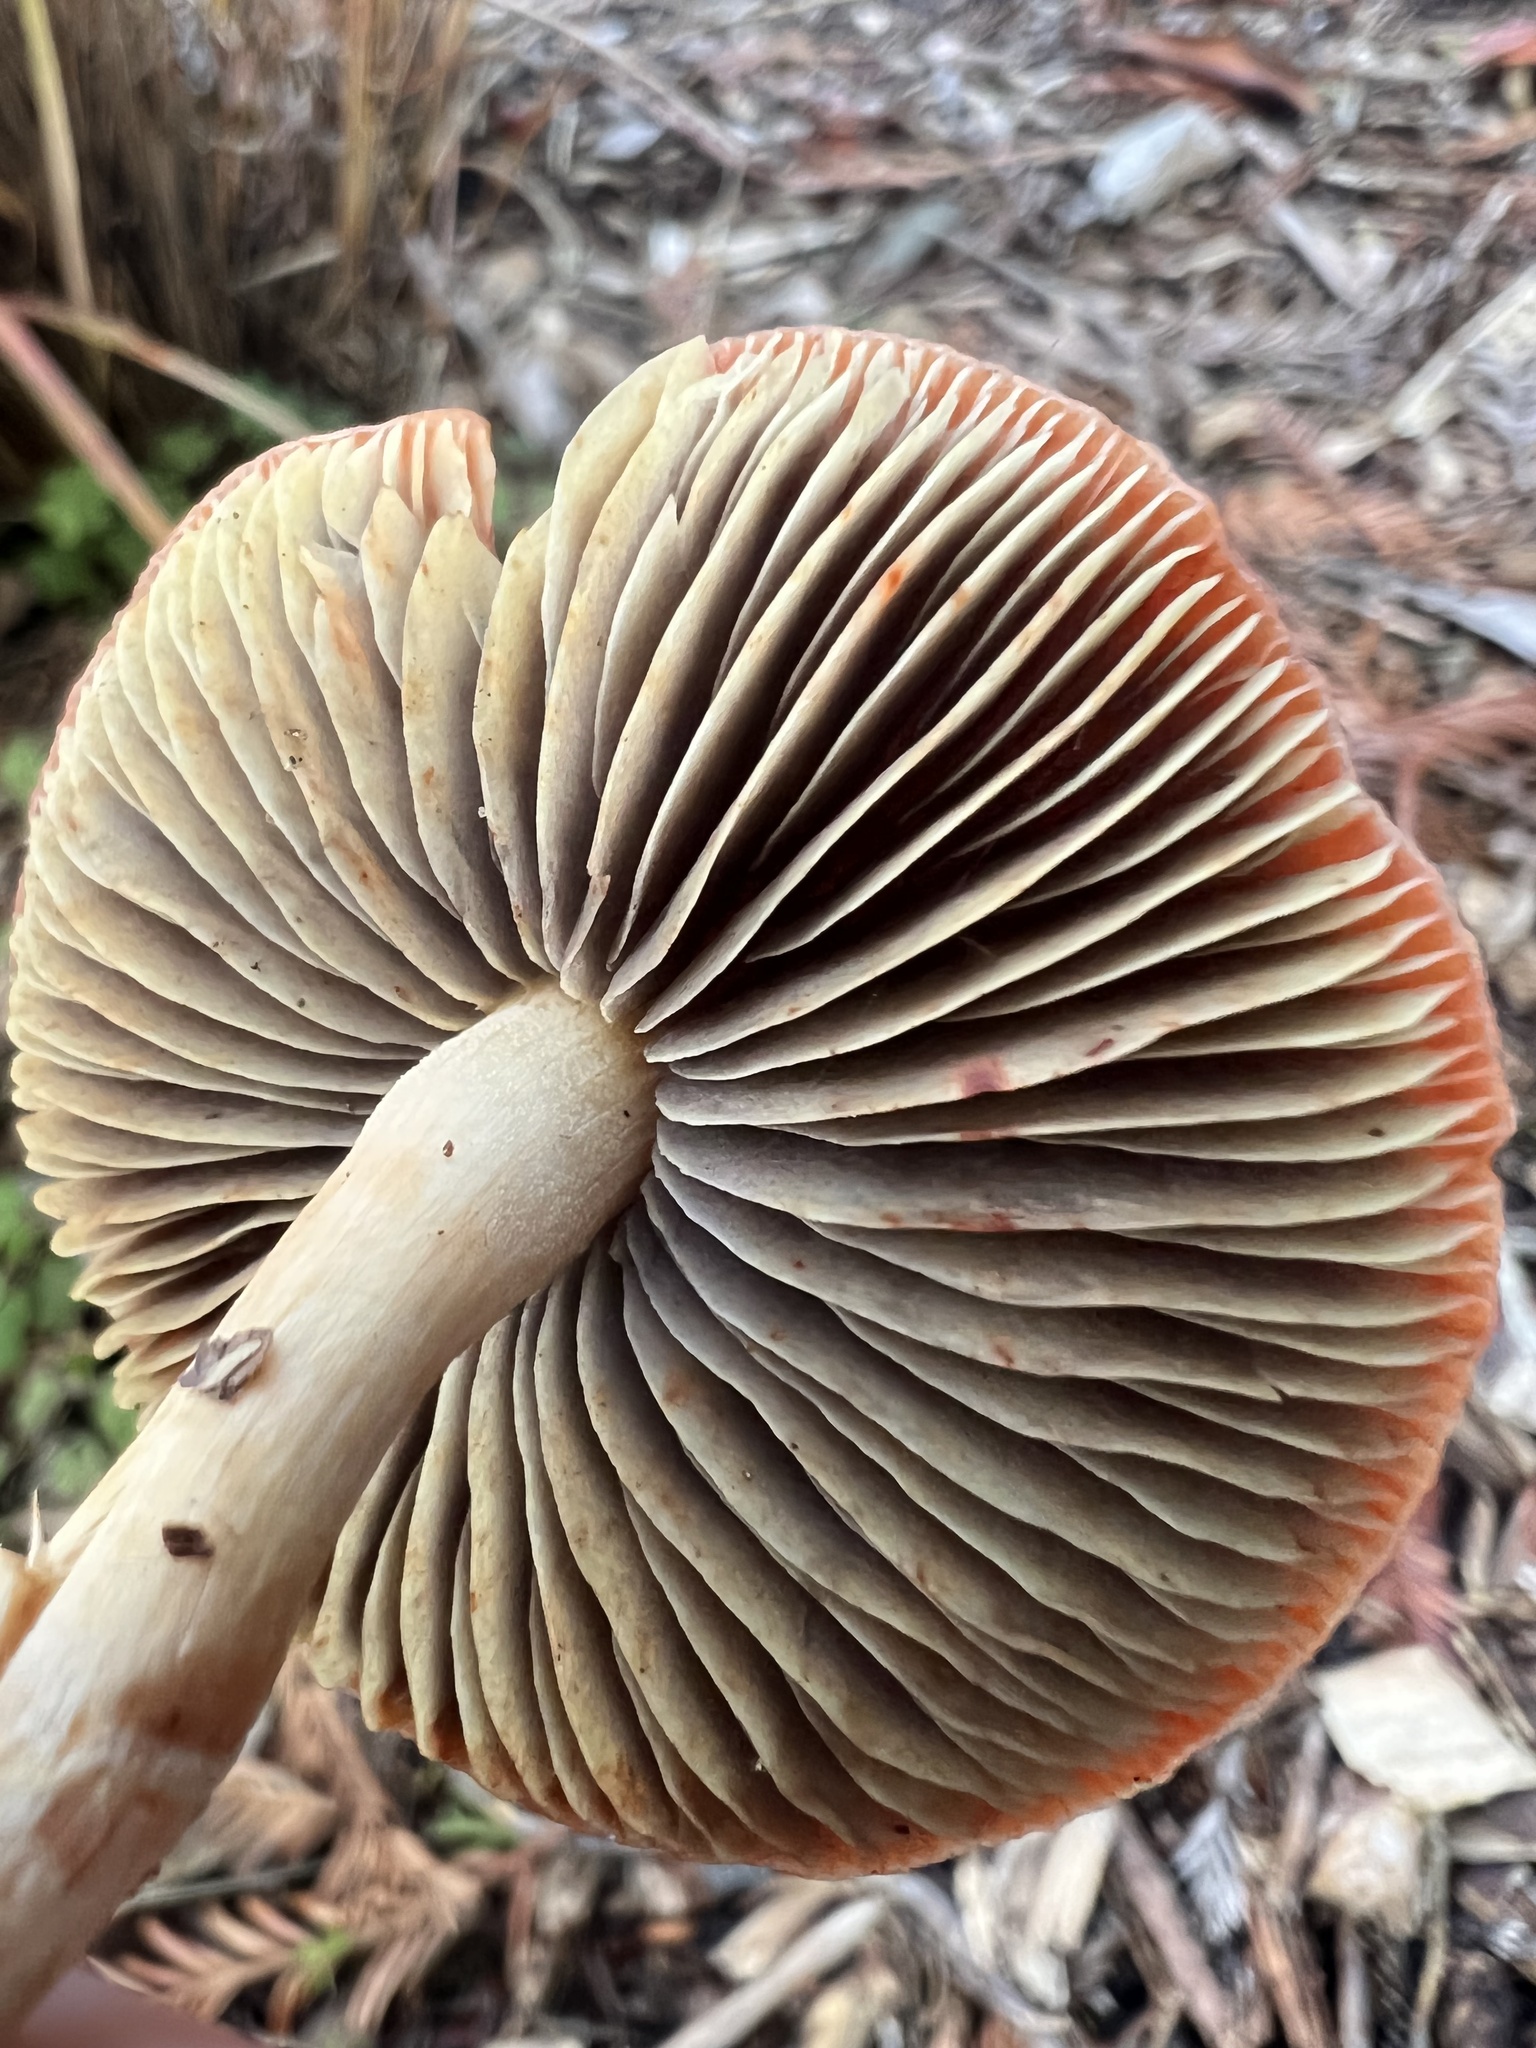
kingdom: Fungi
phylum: Basidiomycota
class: Agaricomycetes
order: Agaricales
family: Strophariaceae
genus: Leratiomyces
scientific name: Leratiomyces ceres
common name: Redlead roundhead
